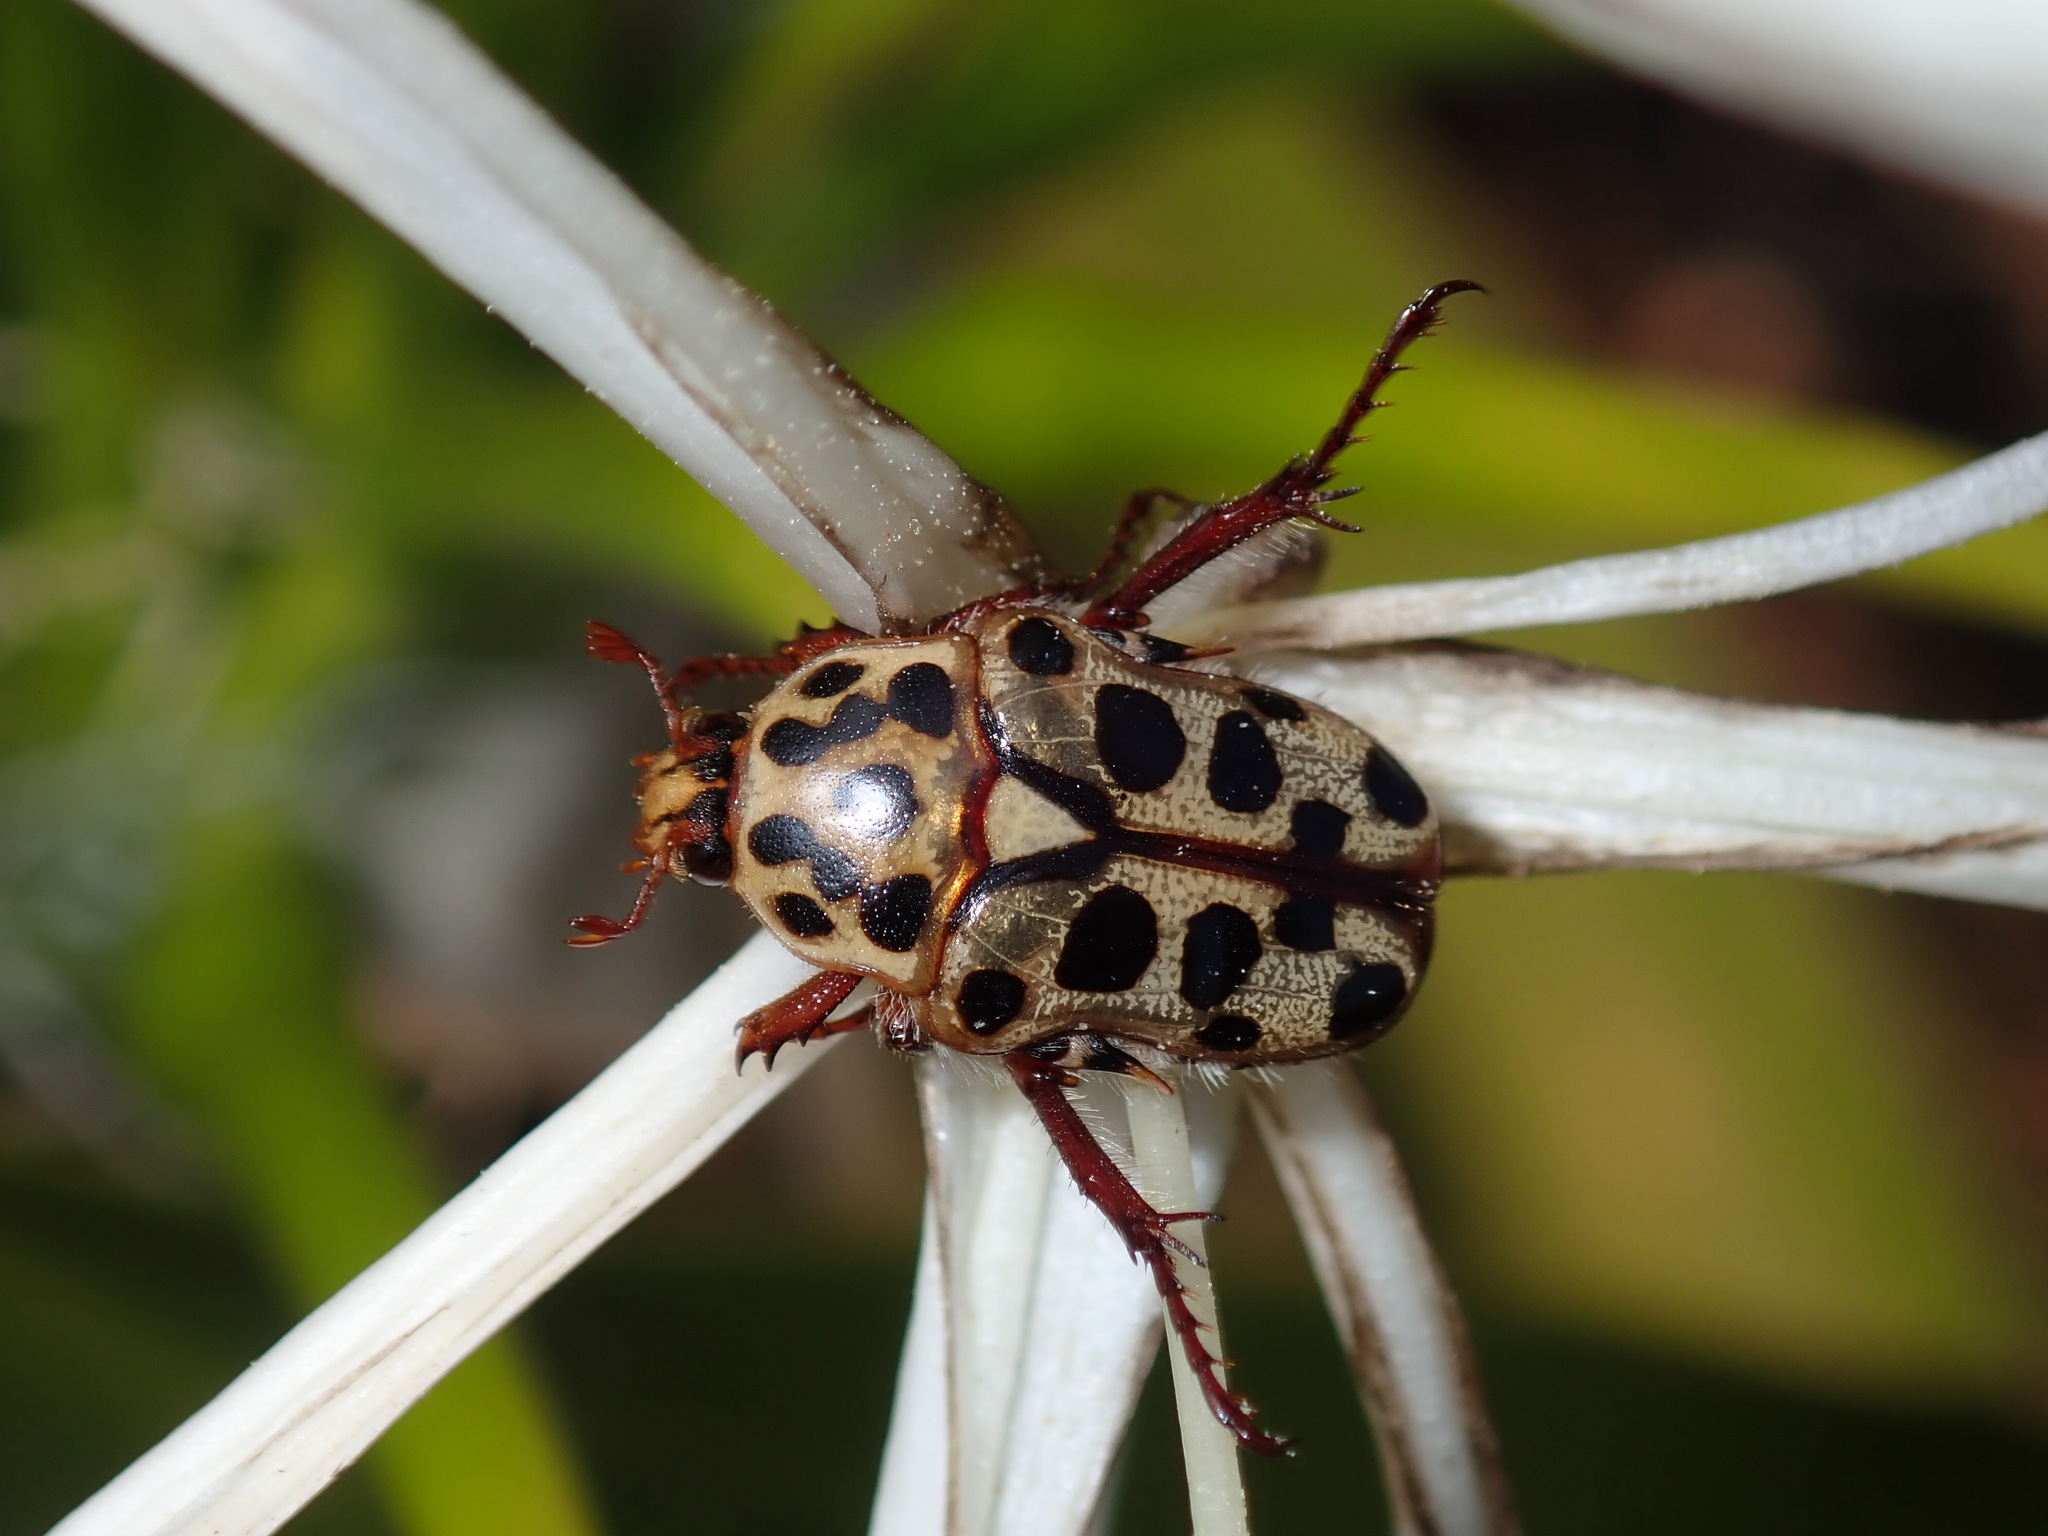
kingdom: Animalia
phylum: Arthropoda
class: Insecta
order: Coleoptera
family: Scarabaeidae
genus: Neorrhina
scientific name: Neorrhina punctatum
